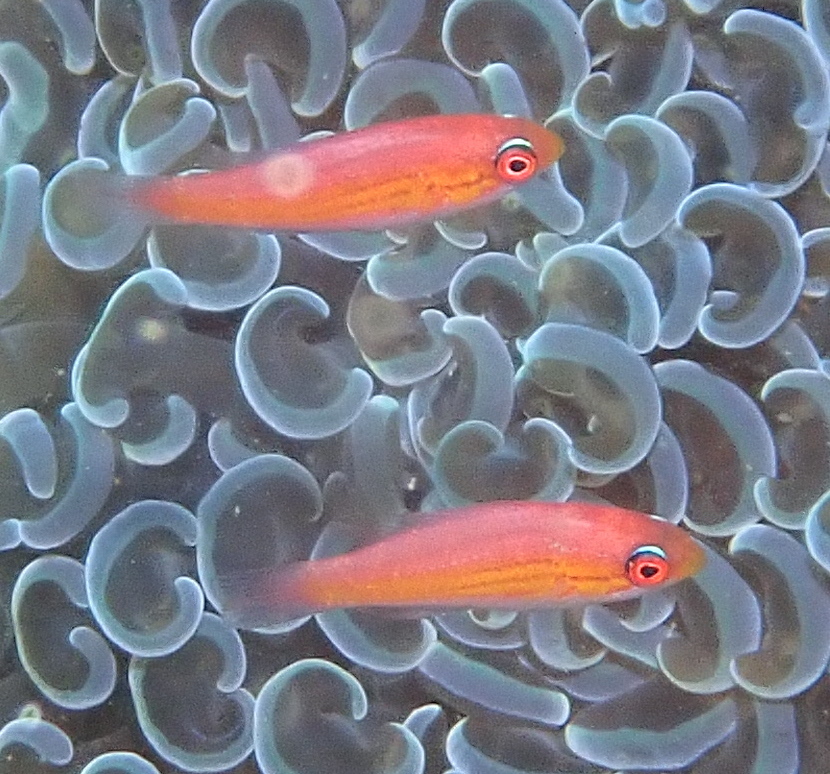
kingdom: Animalia
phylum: Chordata
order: Perciformes
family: Labridae
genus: Paracheilinus
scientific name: Paracheilinus paineorum
